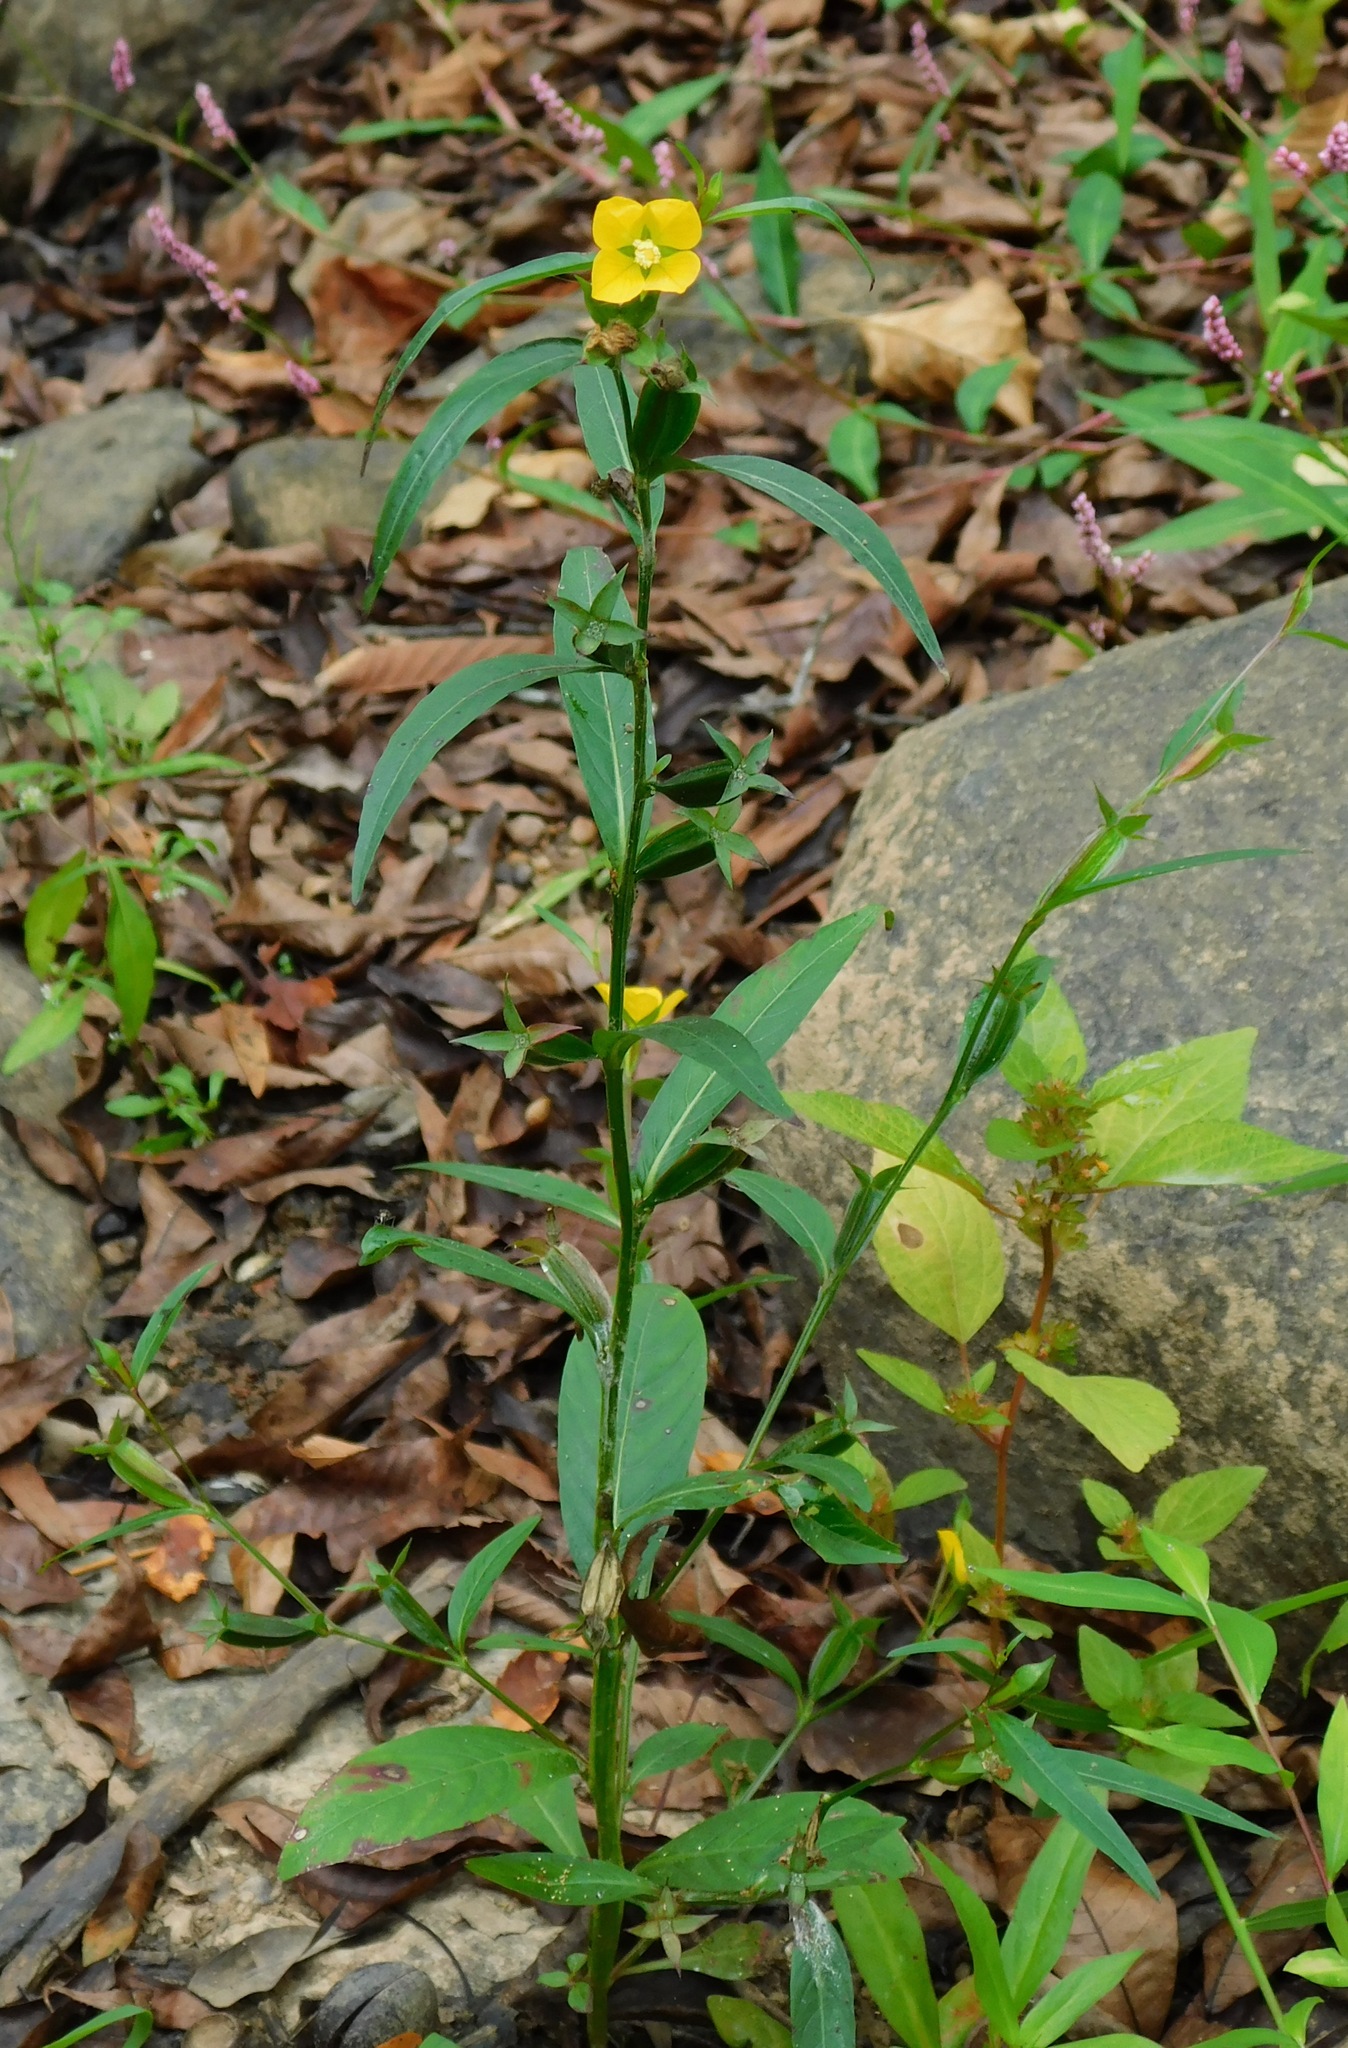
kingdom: Plantae
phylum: Tracheophyta
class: Magnoliopsida
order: Myrtales
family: Onagraceae
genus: Ludwigia
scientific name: Ludwigia decurrens
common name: Winged water-primrose
